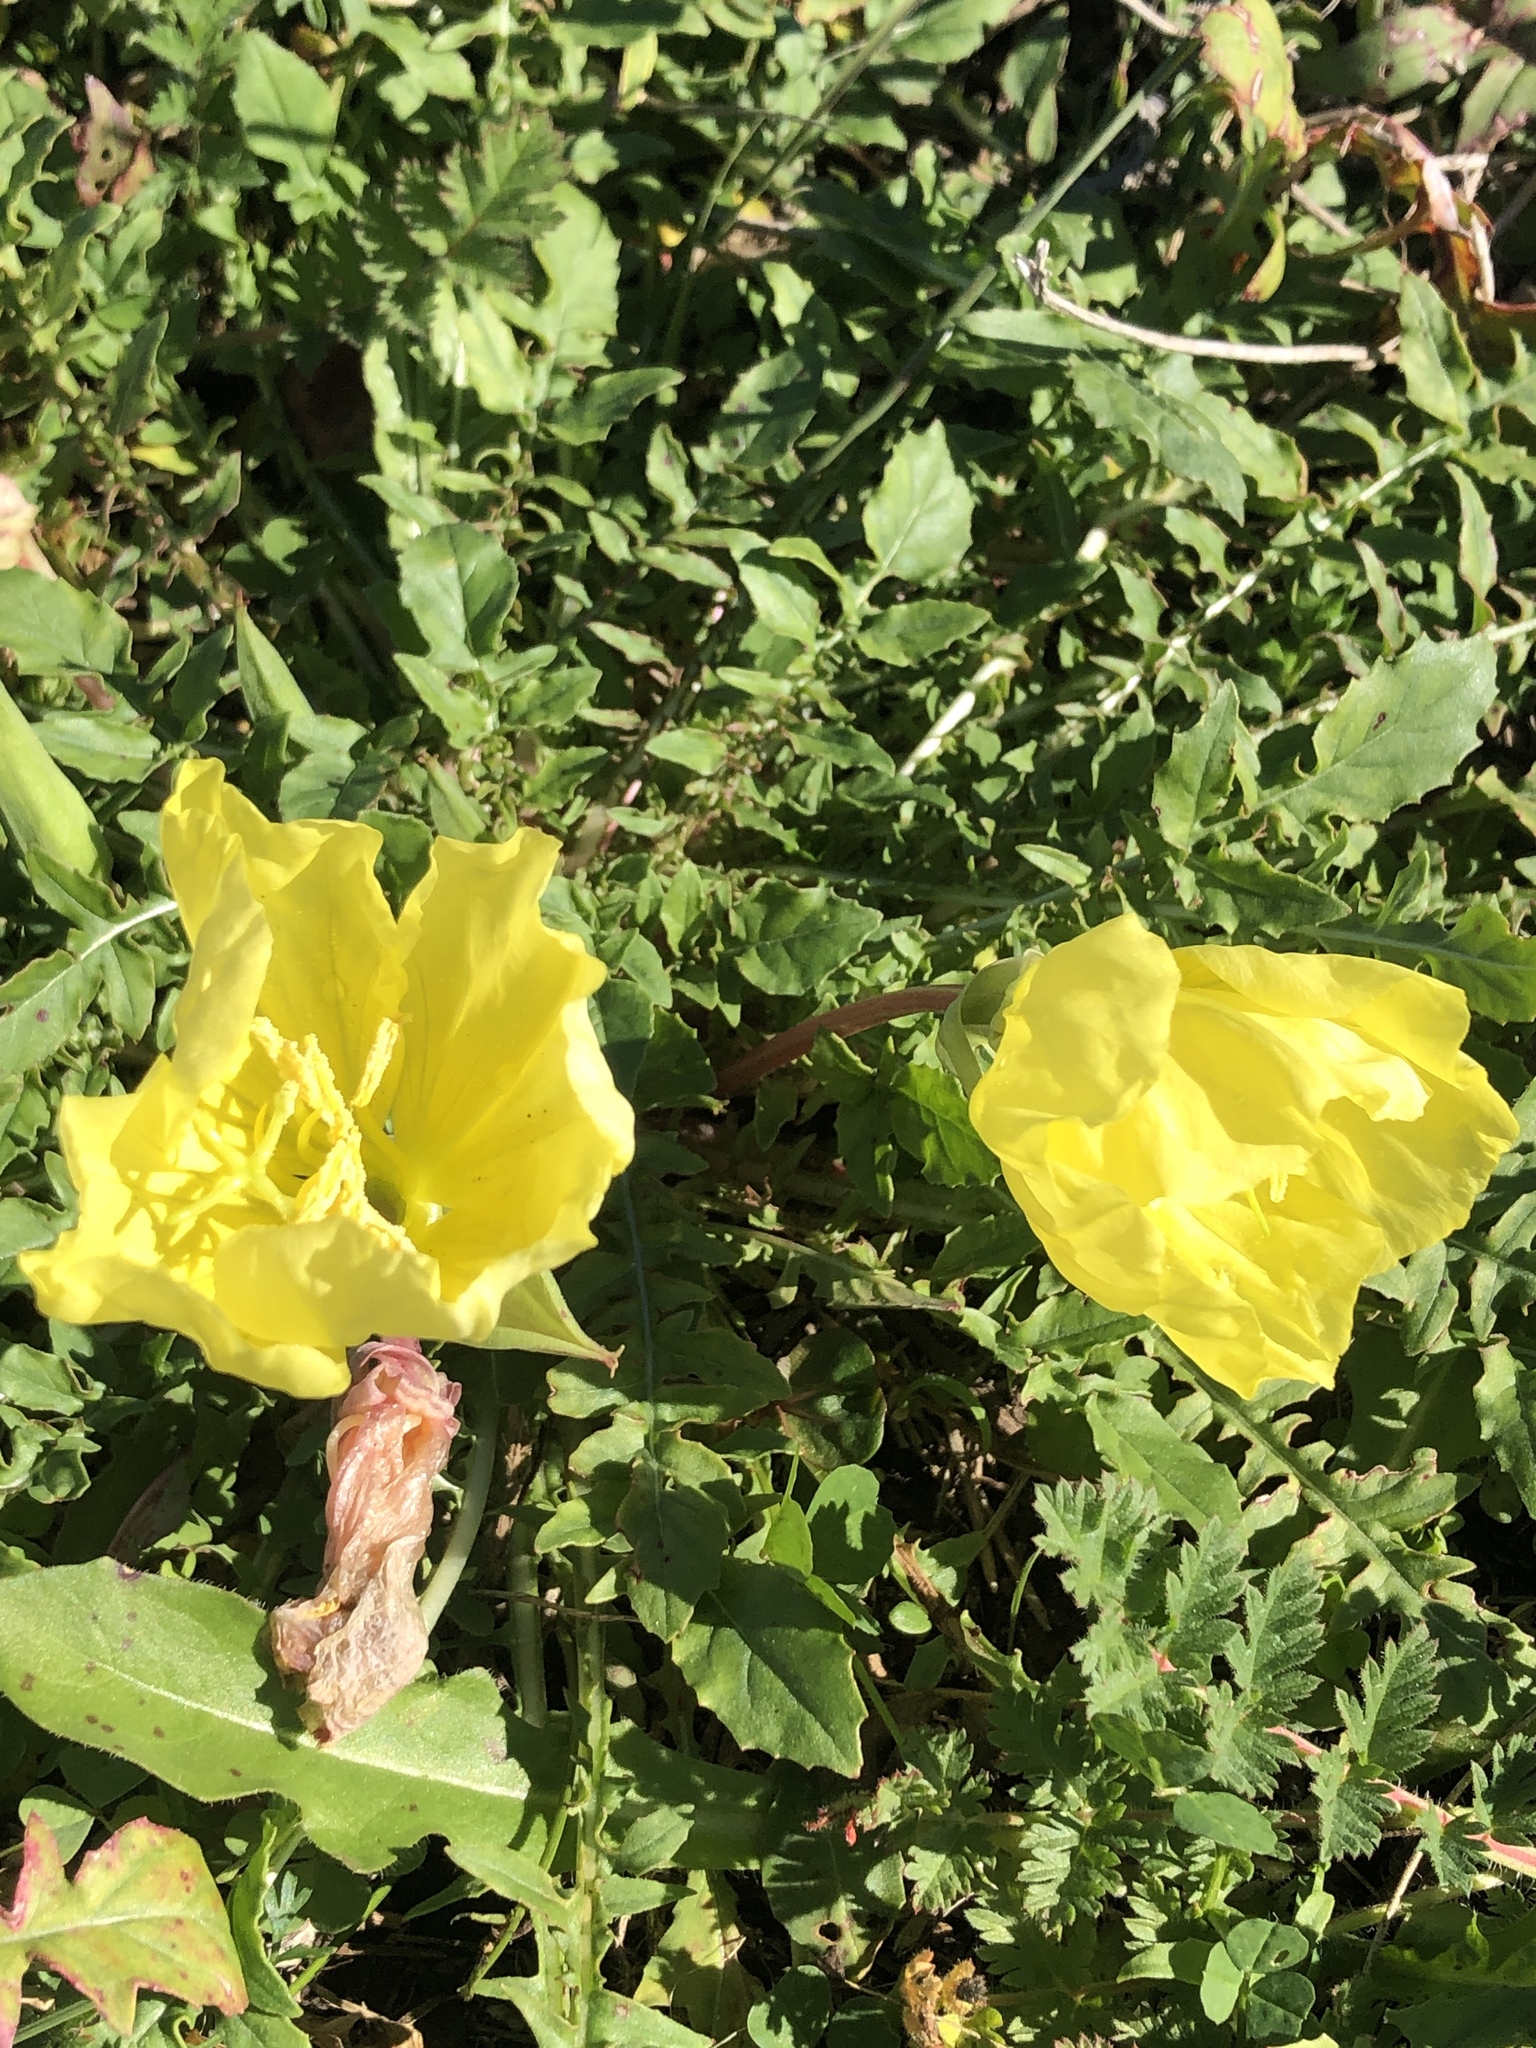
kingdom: Plantae
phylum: Tracheophyta
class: Magnoliopsida
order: Myrtales
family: Onagraceae
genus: Oenothera
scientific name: Oenothera triloba
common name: Sessile evening-primrose
